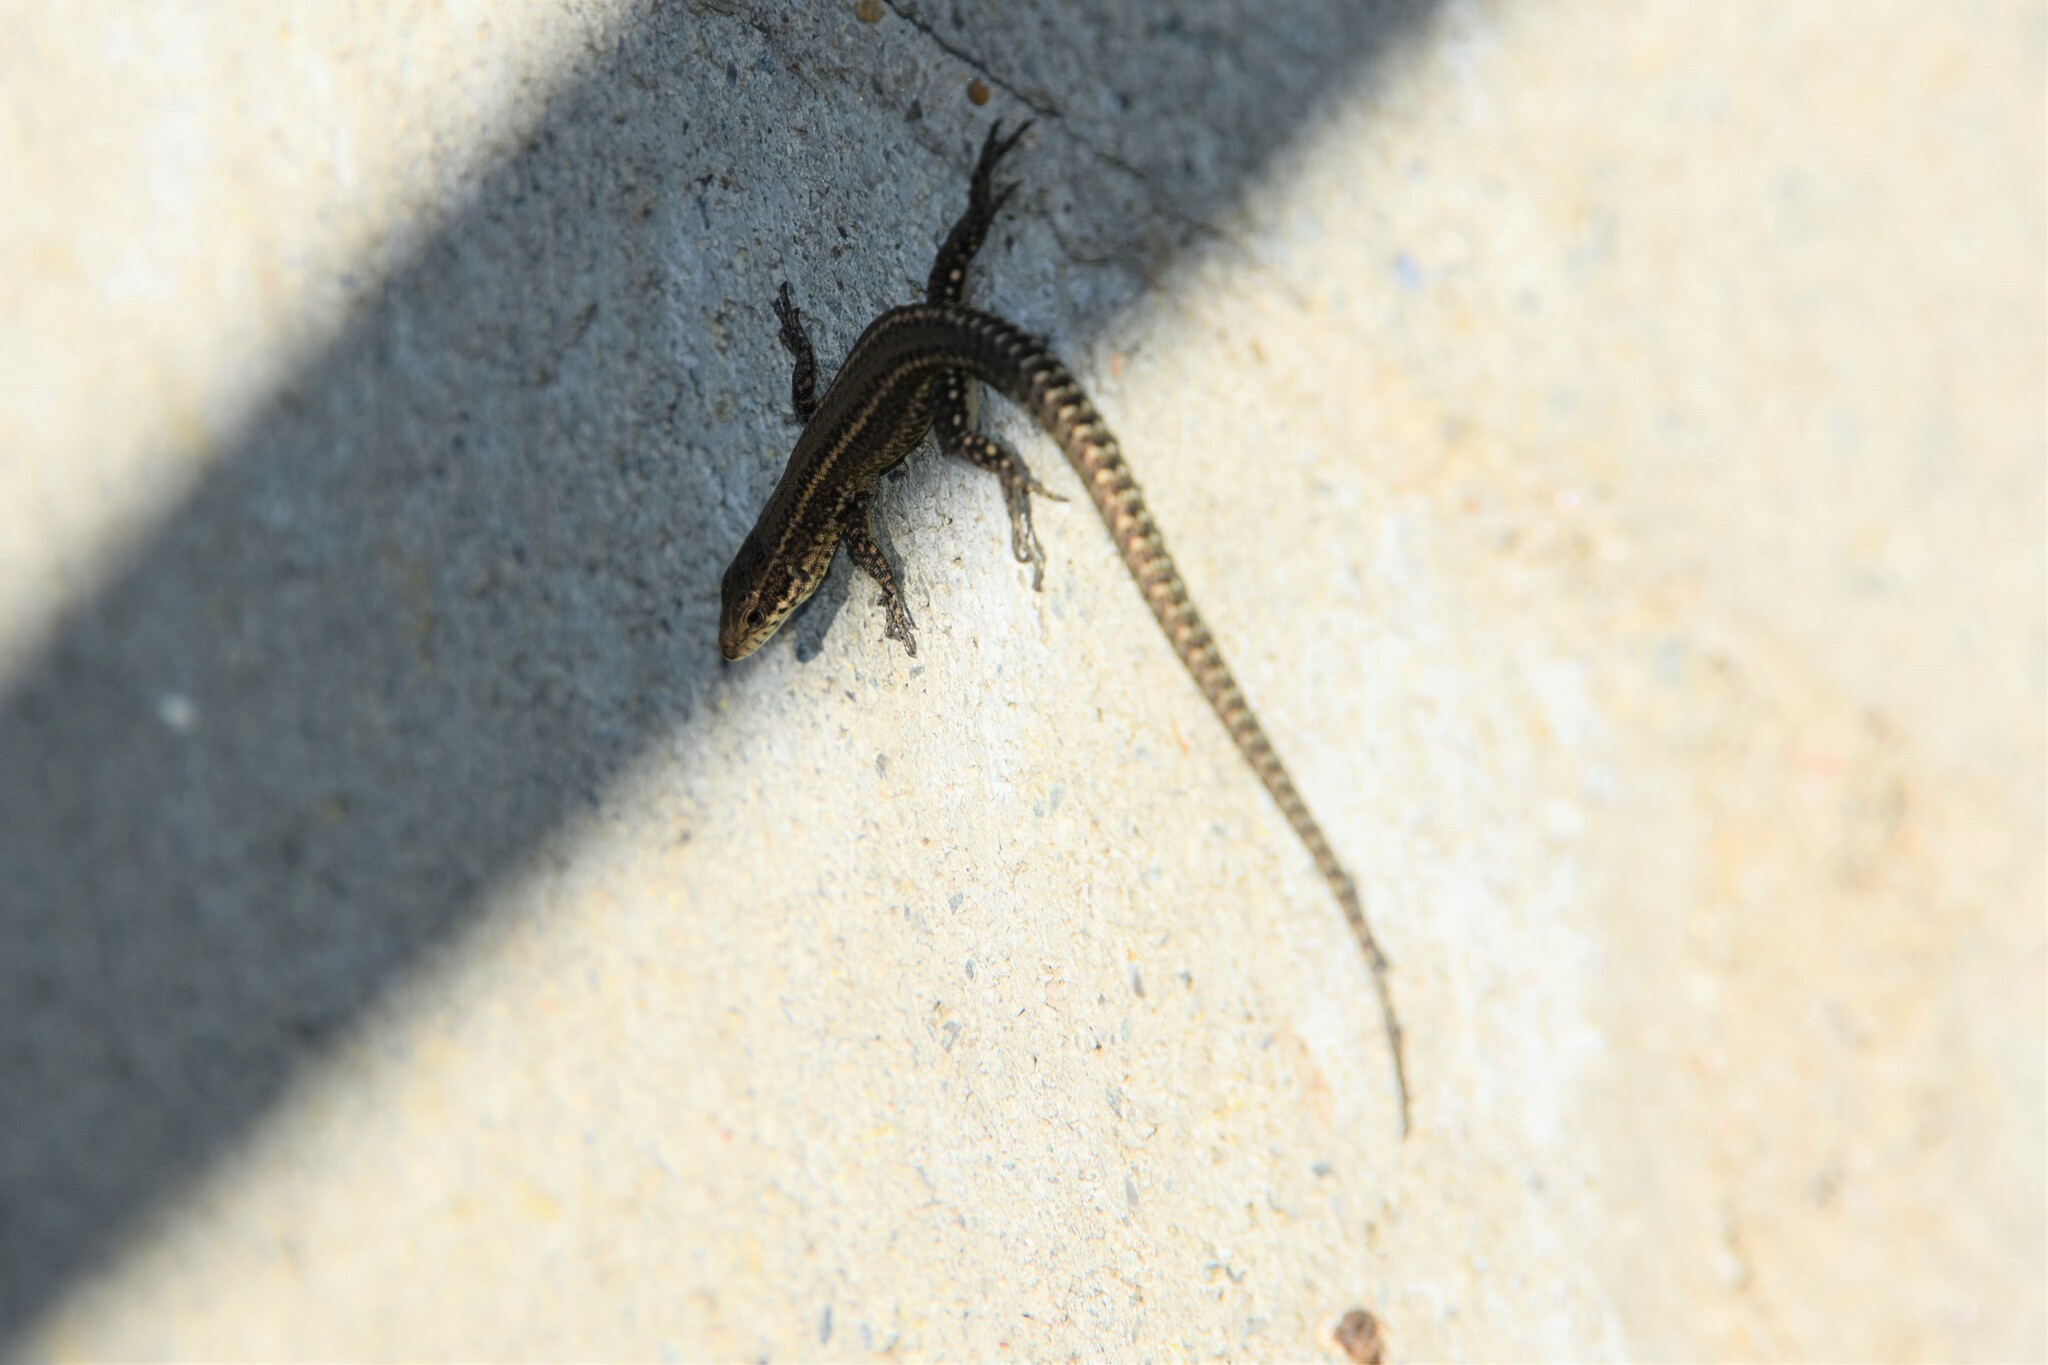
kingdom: Animalia
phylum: Chordata
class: Squamata
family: Lacertidae
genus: Podarcis
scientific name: Podarcis bocagei
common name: Bocage's wall lizard
